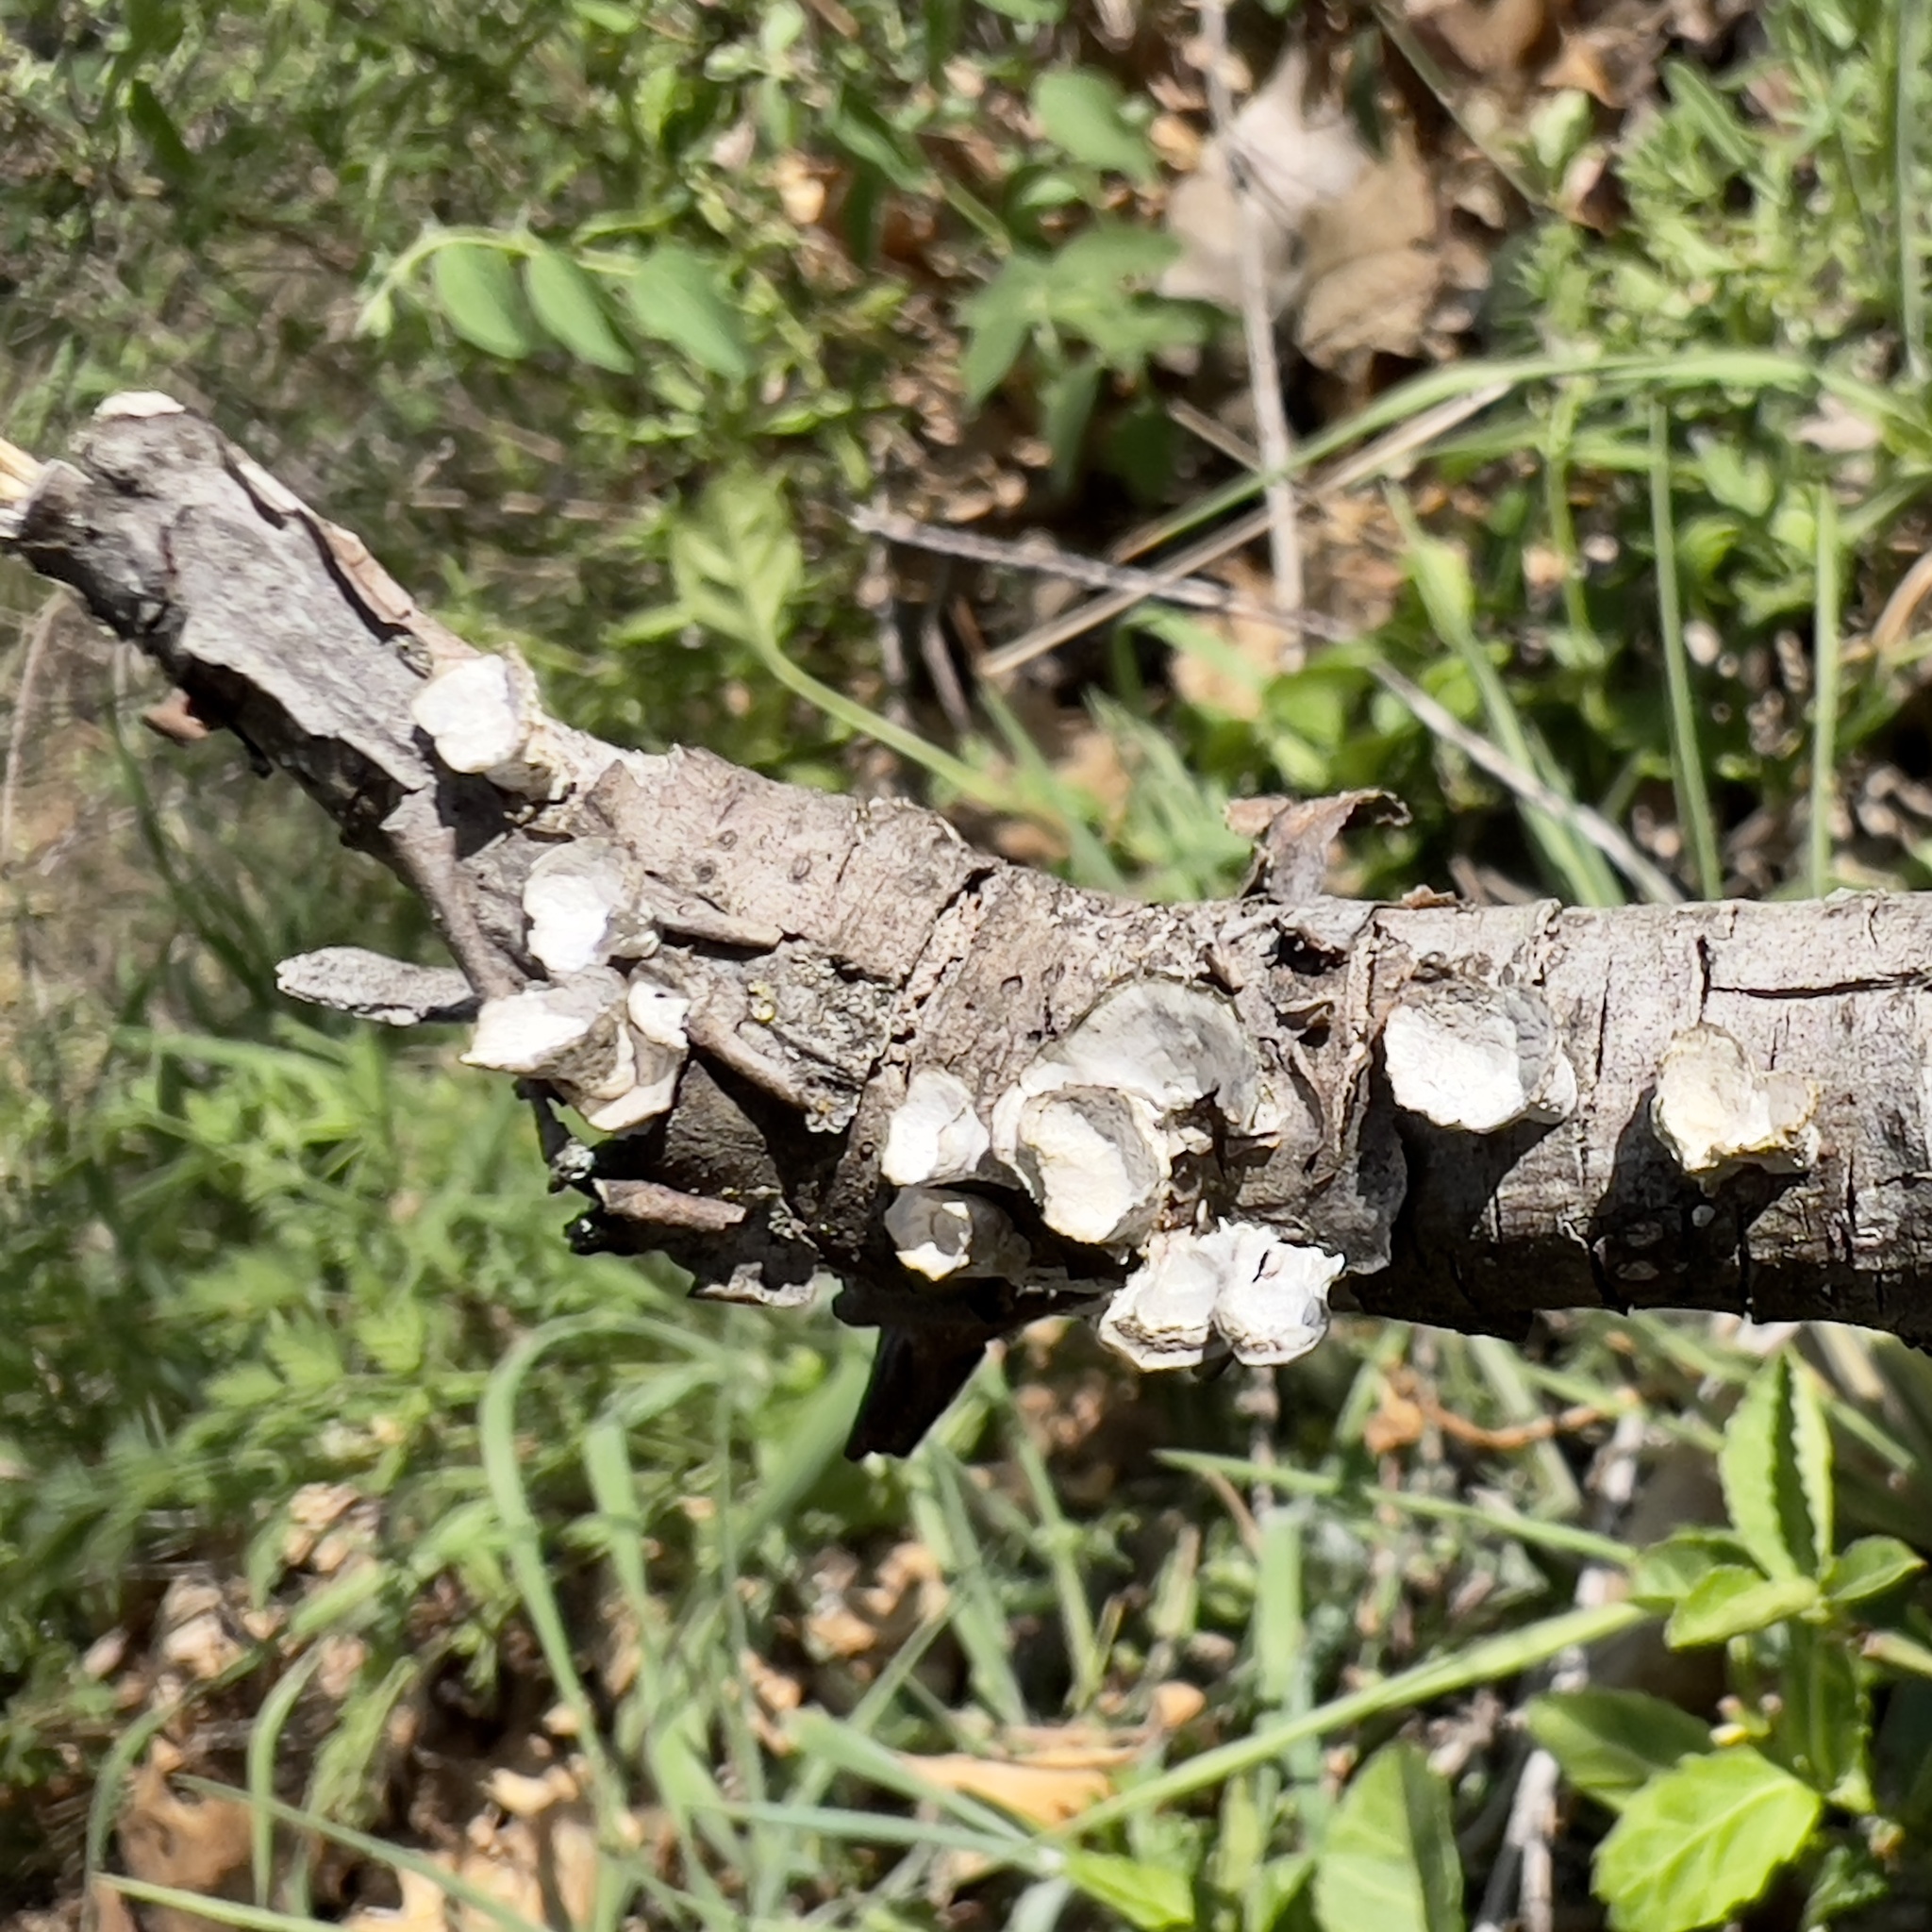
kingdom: Fungi
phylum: Basidiomycota
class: Agaricomycetes
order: Polyporales
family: Polyporaceae
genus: Poronidulus
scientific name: Poronidulus conchifer
